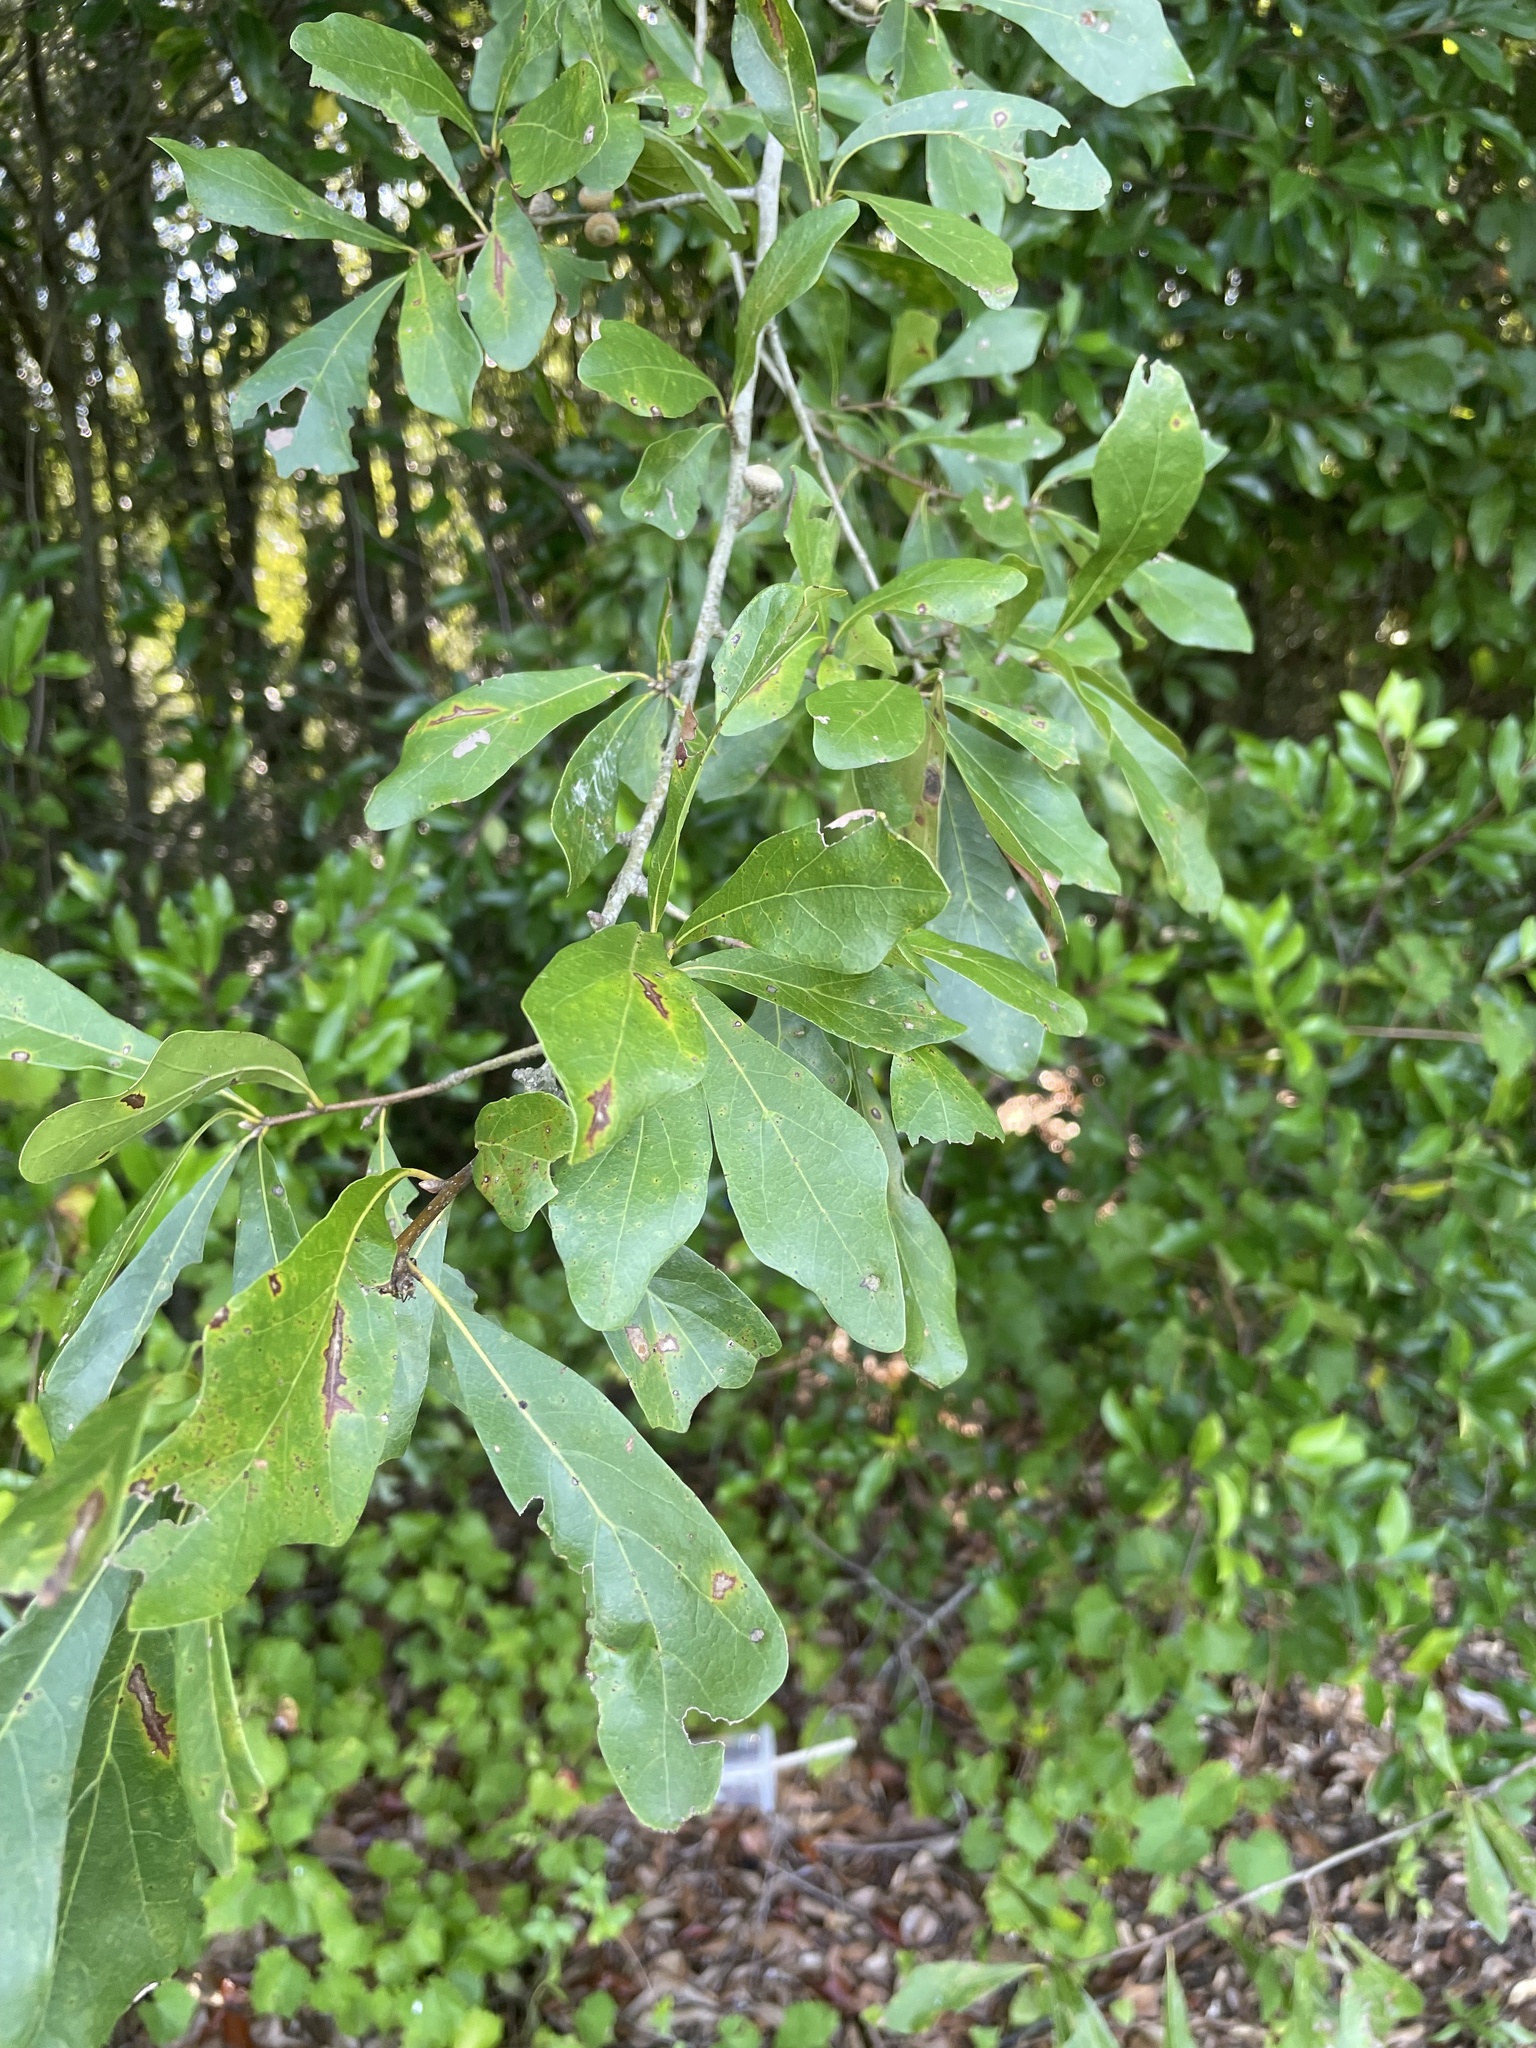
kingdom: Plantae
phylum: Tracheophyta
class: Magnoliopsida
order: Fagales
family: Fagaceae
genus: Quercus
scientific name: Quercus nigra
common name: Water oak
